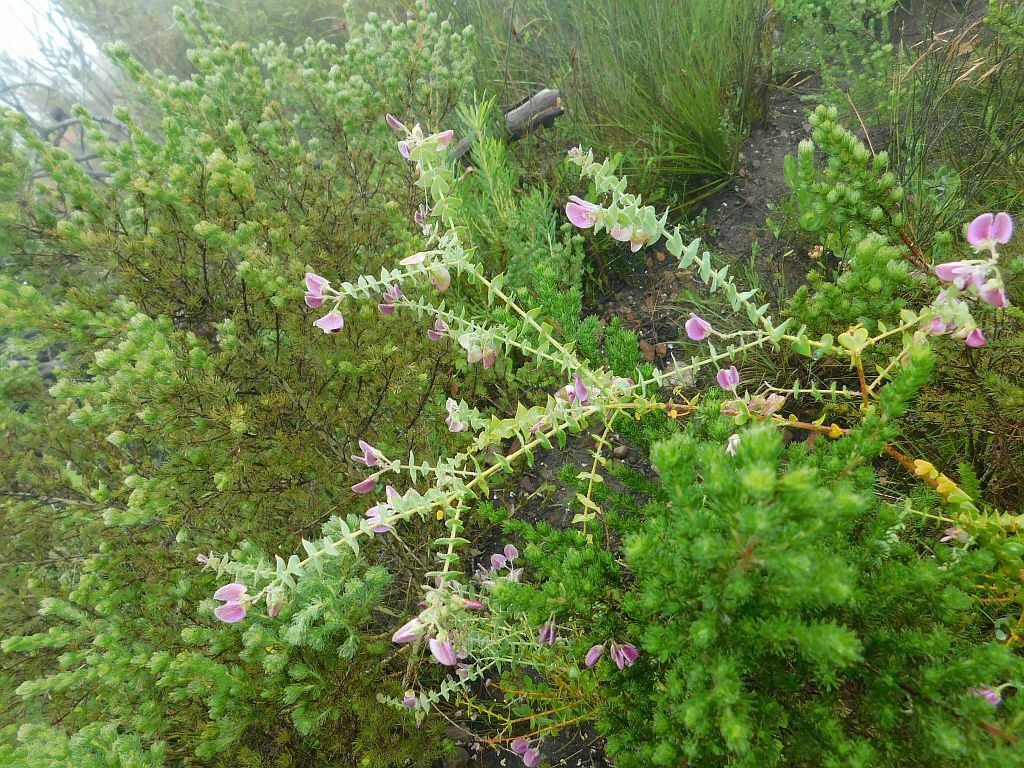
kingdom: Plantae
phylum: Tracheophyta
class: Magnoliopsida
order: Fabales
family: Polygalaceae
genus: Polygala
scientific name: Polygala fruticosa
